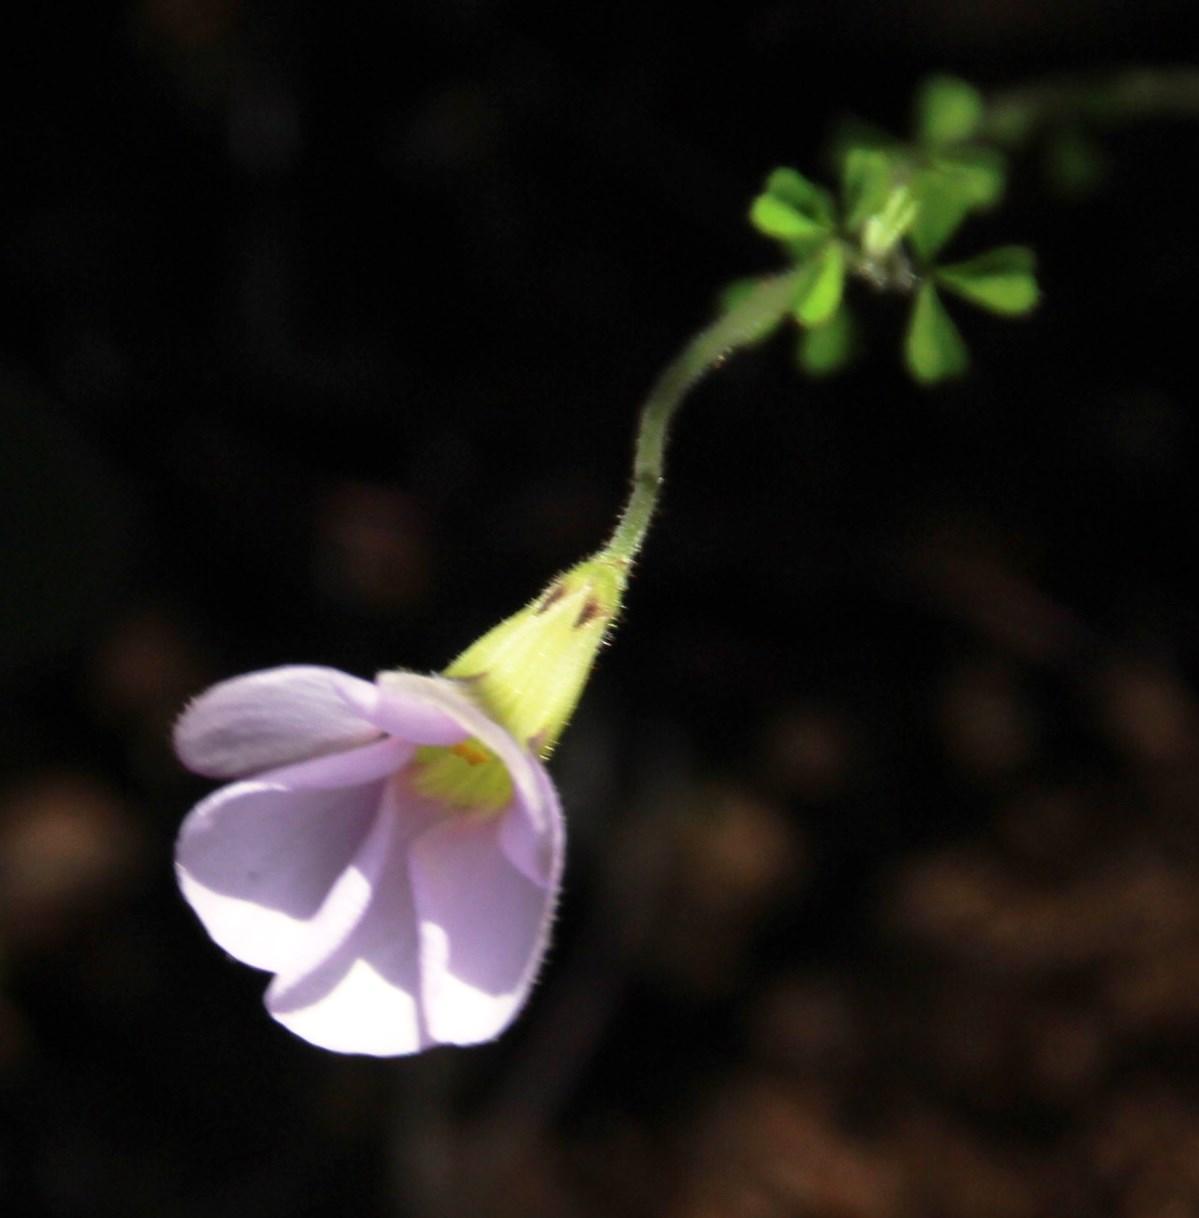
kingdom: Plantae
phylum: Tracheophyta
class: Magnoliopsida
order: Oxalidales
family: Oxalidaceae
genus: Oxalis
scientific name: Oxalis ebracteata
